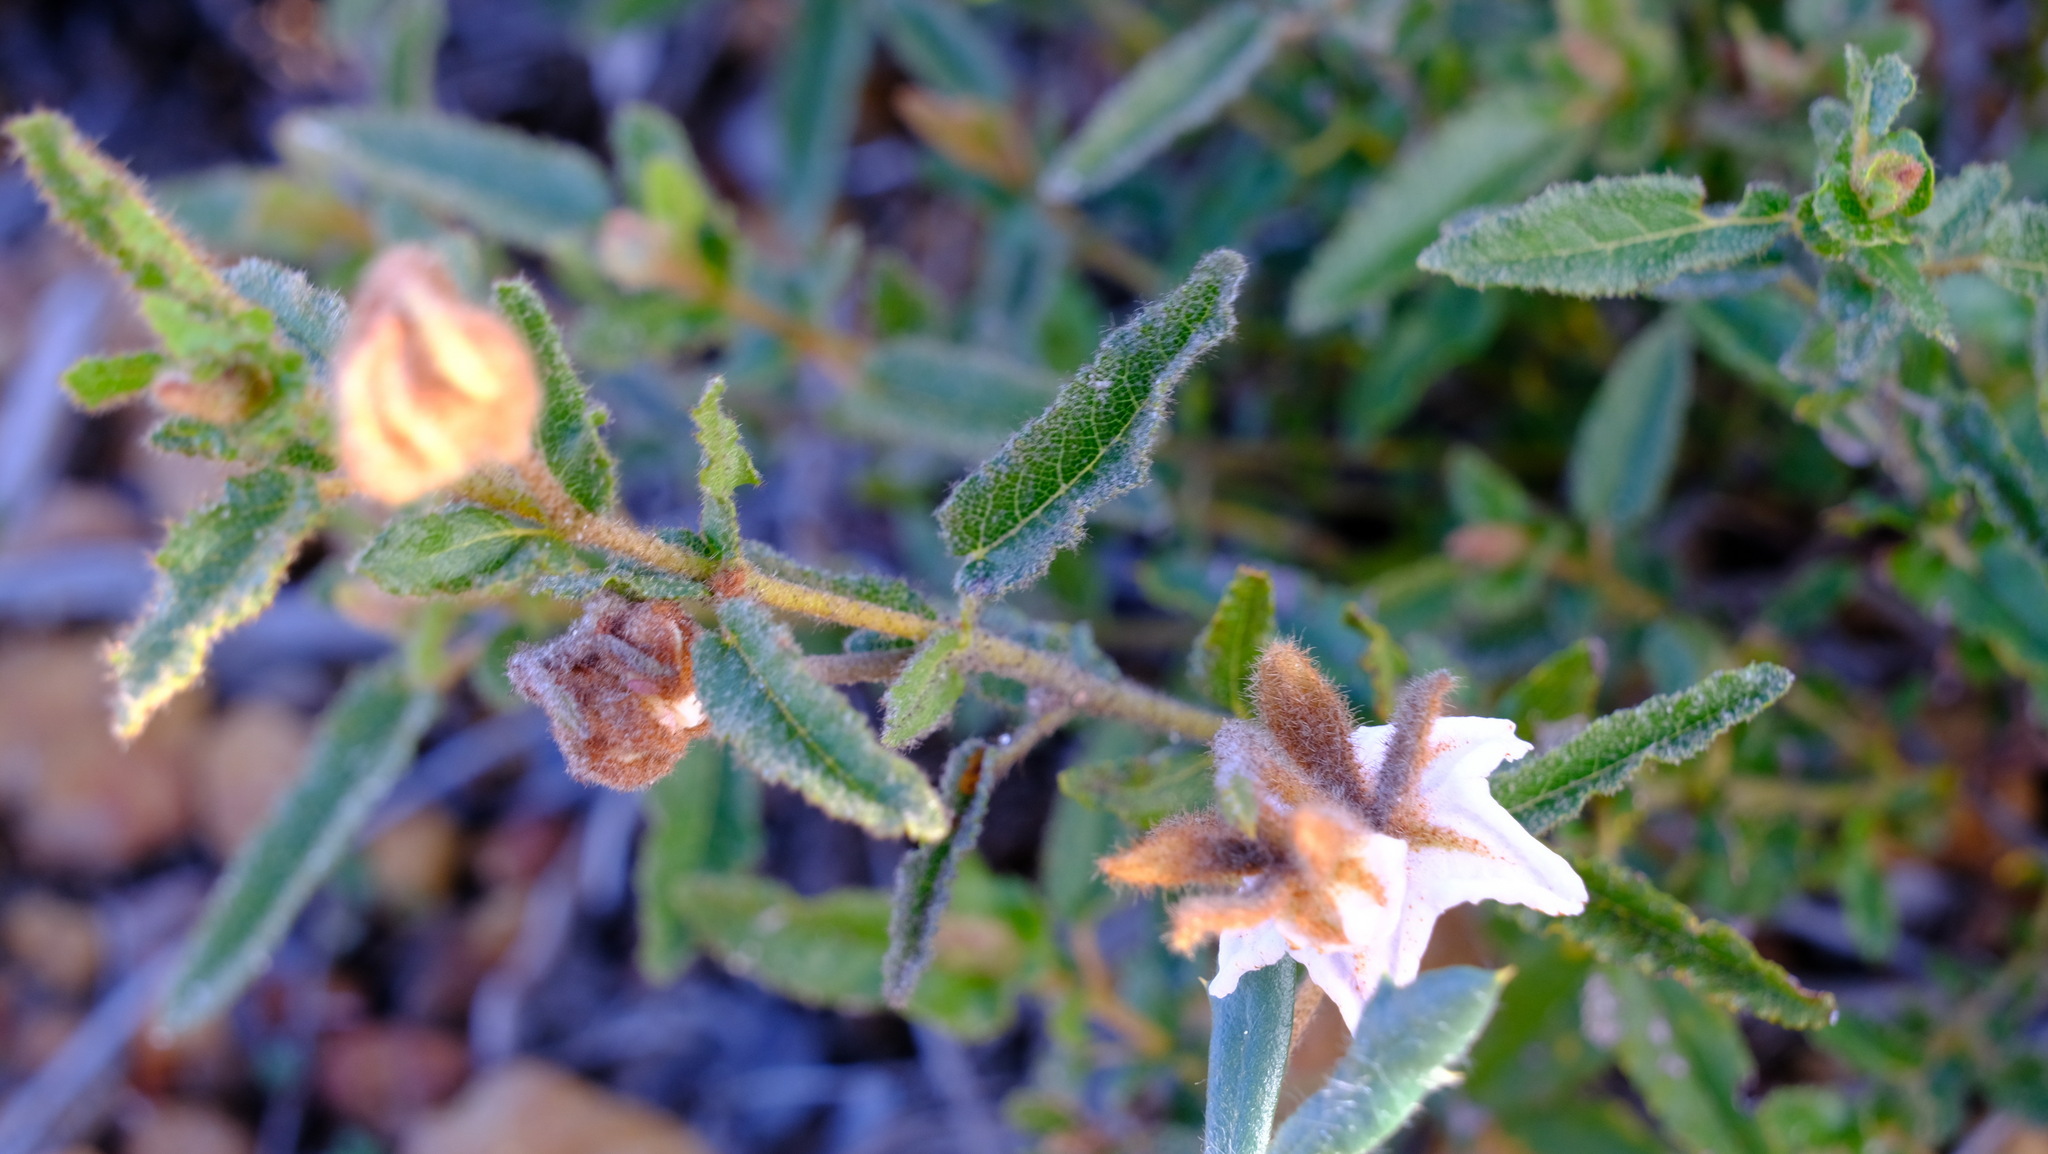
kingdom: Plantae
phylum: Tracheophyta
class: Magnoliopsida
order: Malvales
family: Malvaceae
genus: Thomasia
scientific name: Thomasia grandiflora
